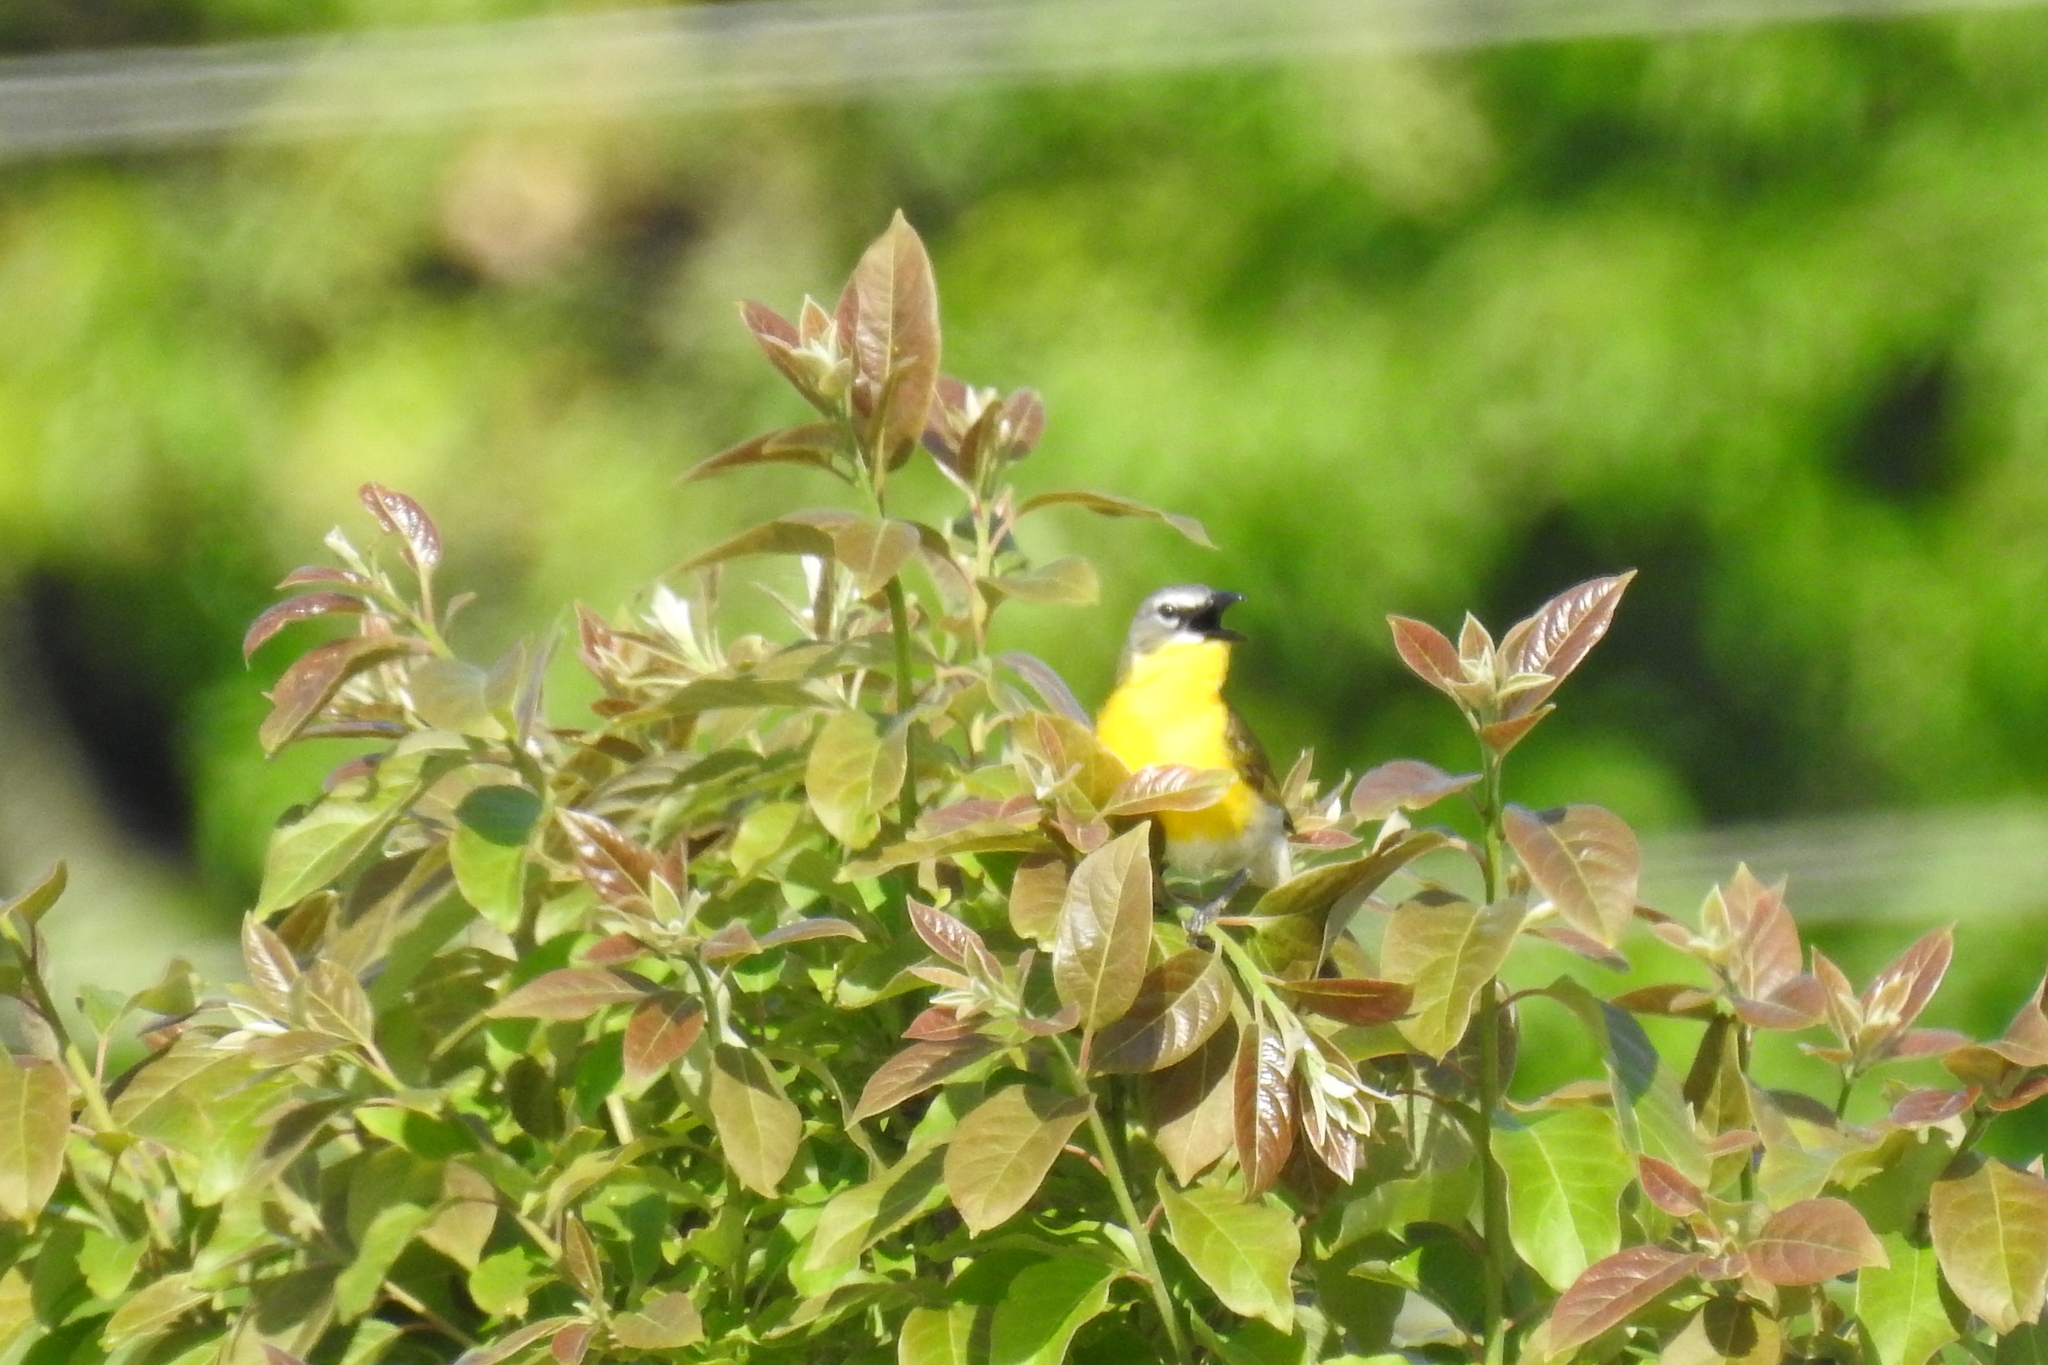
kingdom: Animalia
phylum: Chordata
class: Aves
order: Passeriformes
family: Parulidae
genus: Icteria
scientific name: Icteria virens
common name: Yellow-breasted chat
